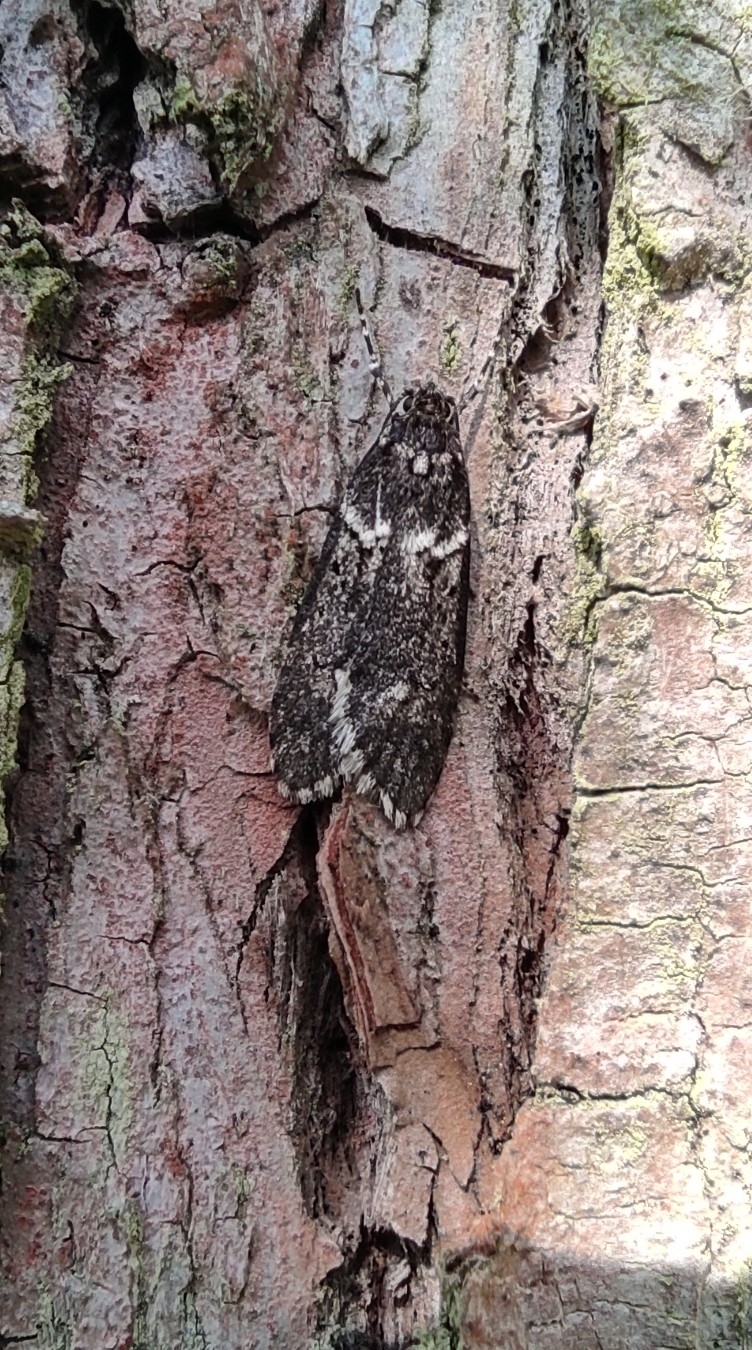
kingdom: Animalia
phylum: Arthropoda
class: Insecta
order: Lepidoptera
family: Lypusidae
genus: Diurnea
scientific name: Diurnea fagella
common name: March tubic
